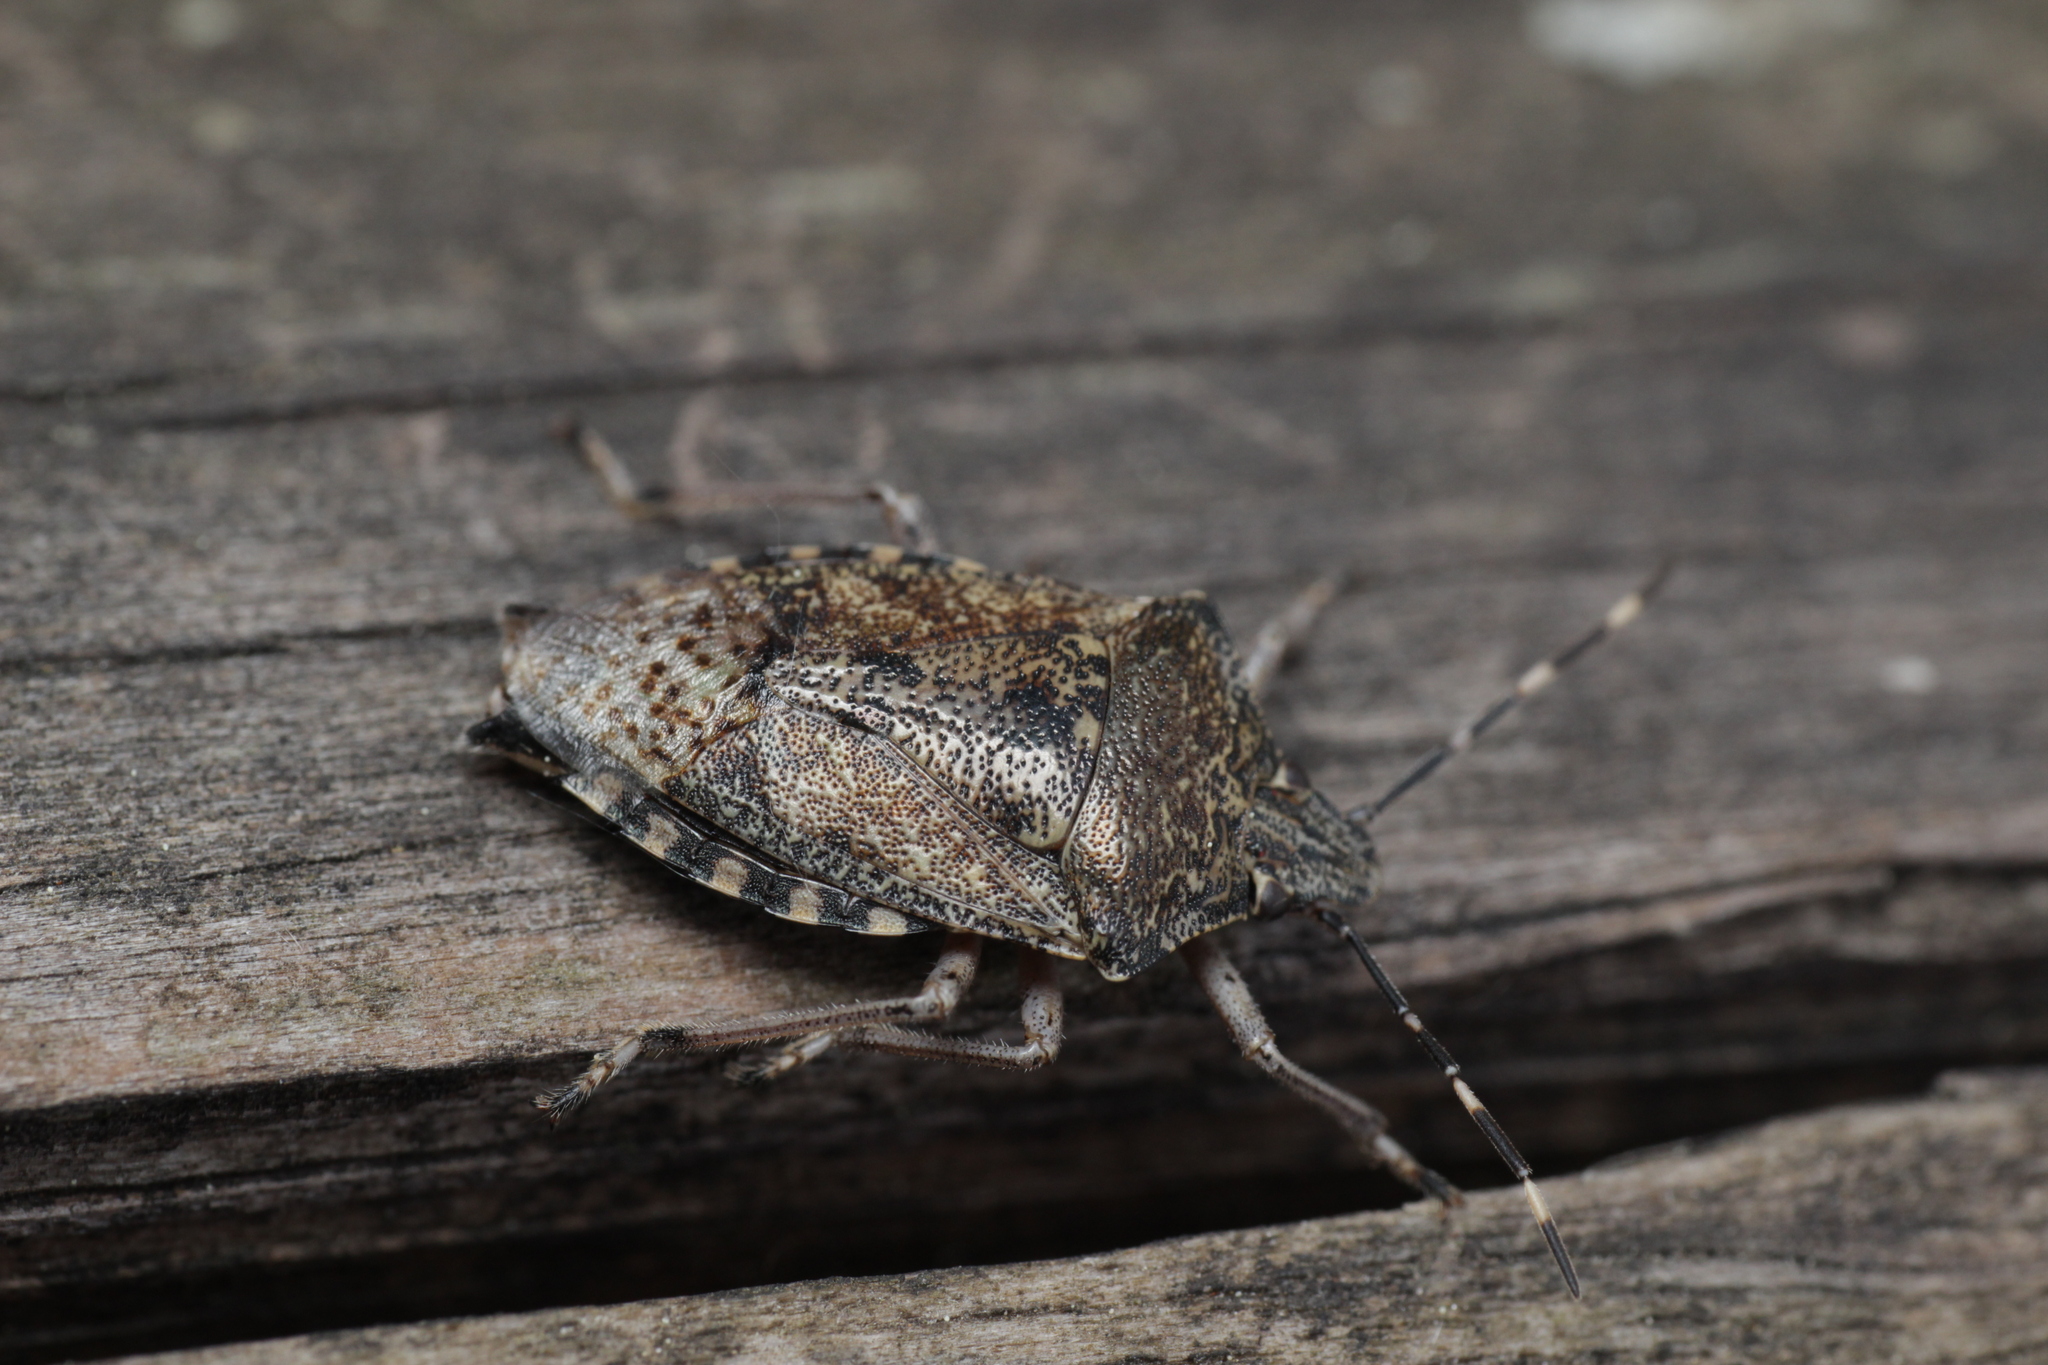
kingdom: Animalia
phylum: Arthropoda
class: Insecta
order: Hemiptera
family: Pentatomidae
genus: Rhaphigaster
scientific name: Rhaphigaster nebulosa
